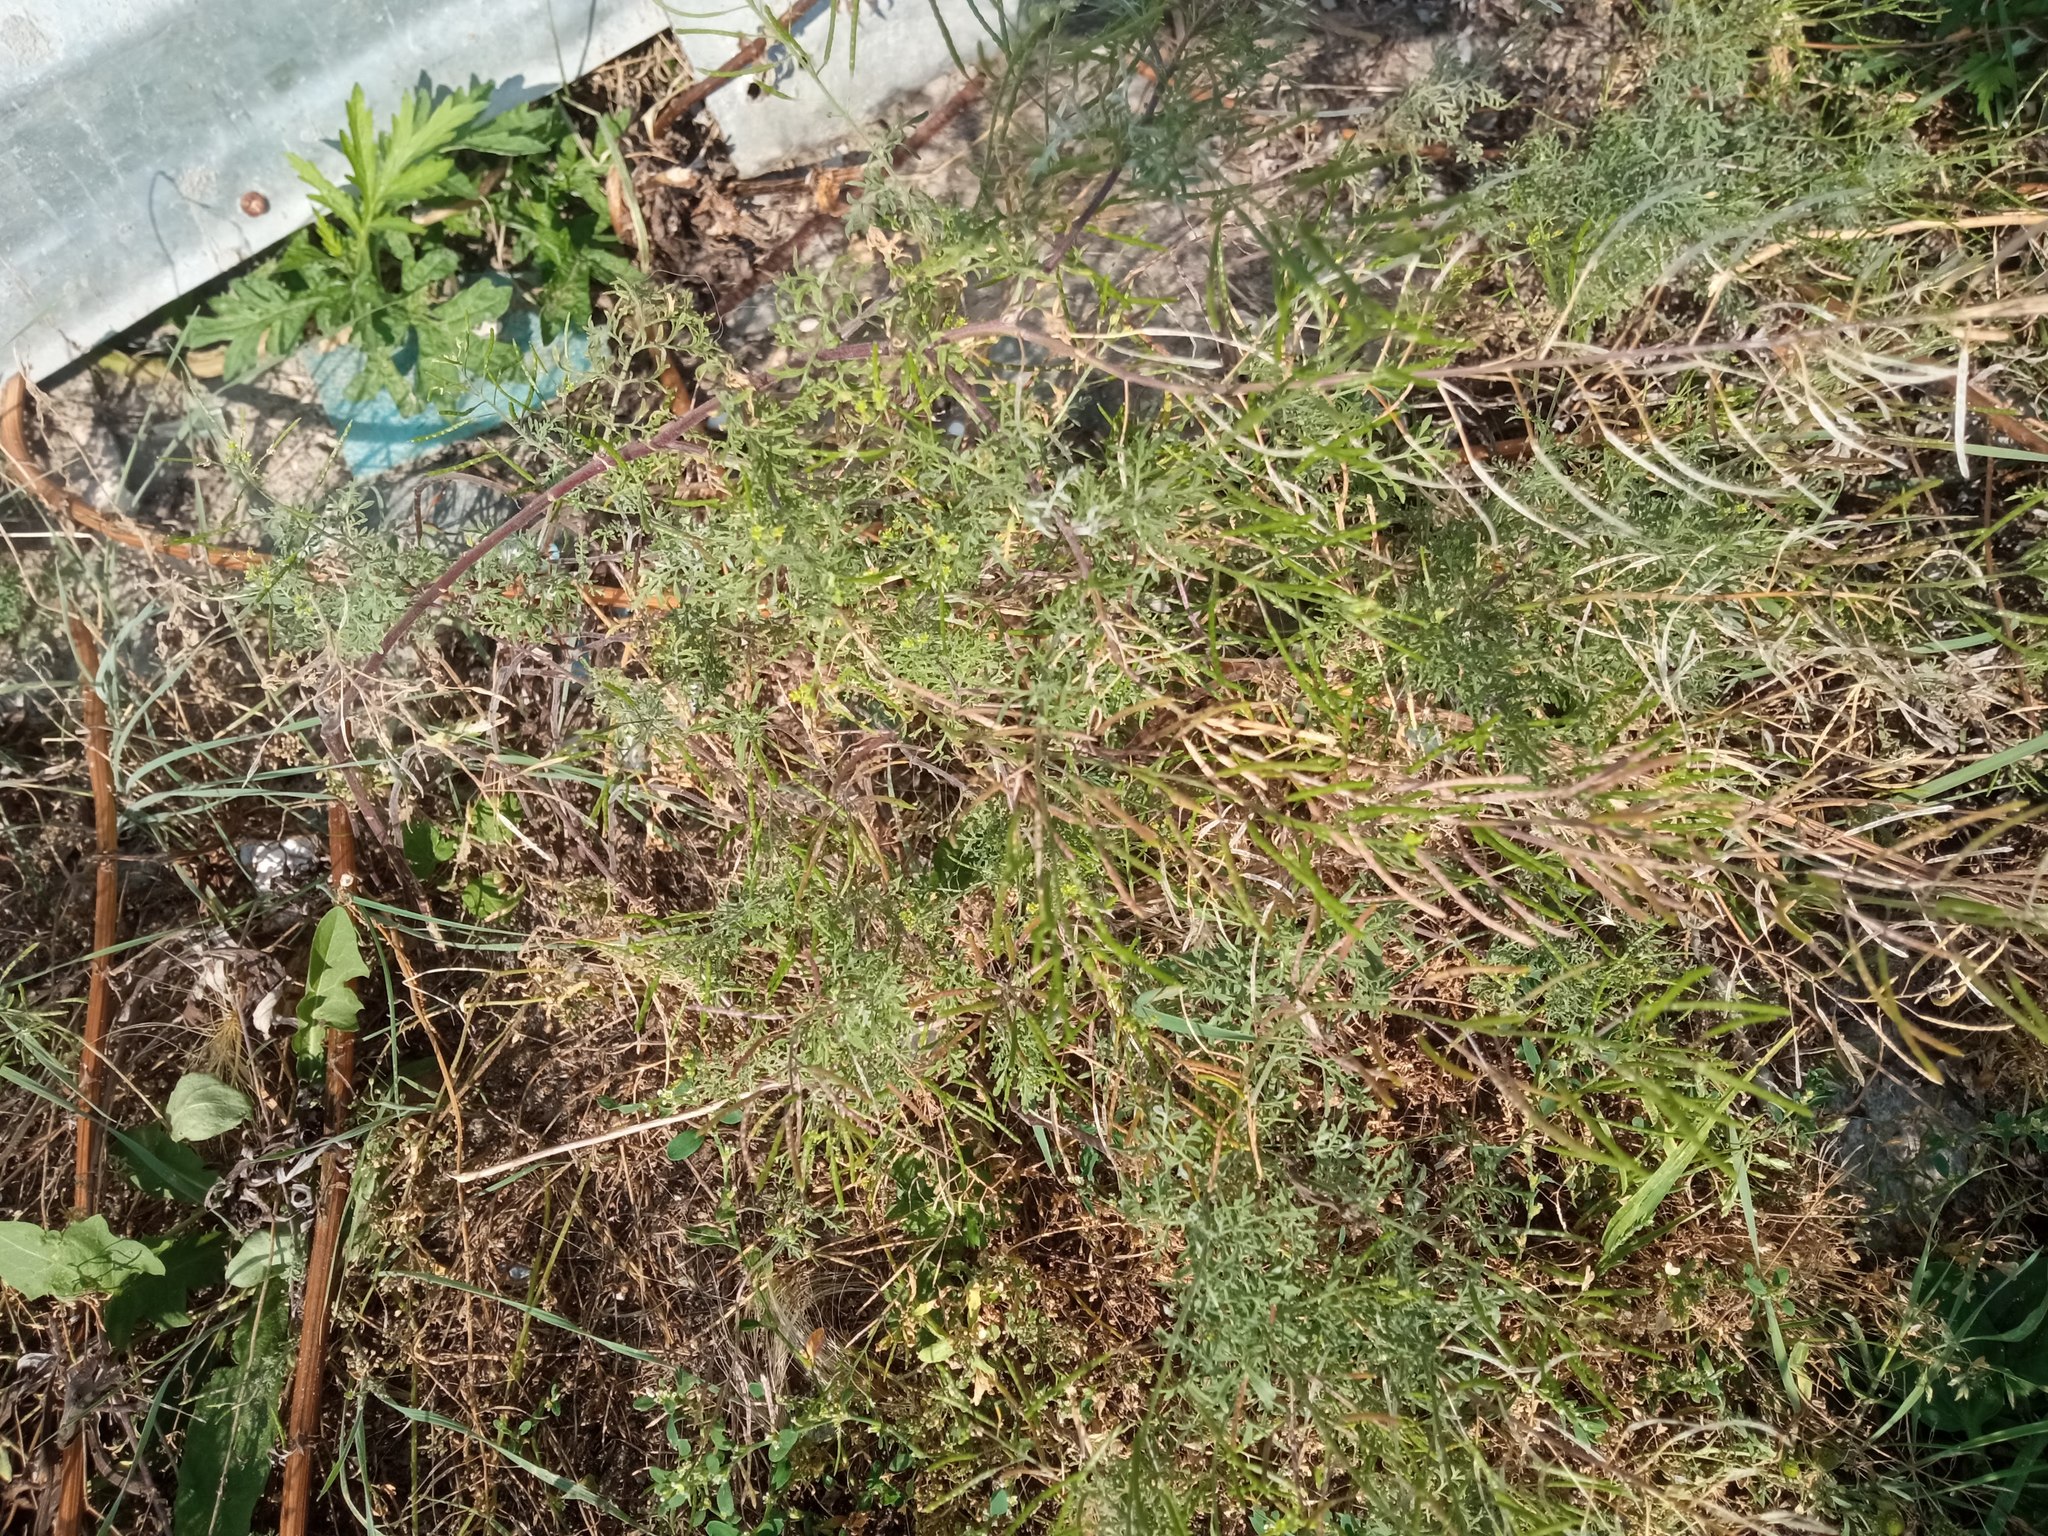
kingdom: Plantae
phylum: Tracheophyta
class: Magnoliopsida
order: Brassicales
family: Brassicaceae
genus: Descurainia
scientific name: Descurainia sophia
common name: Flixweed
